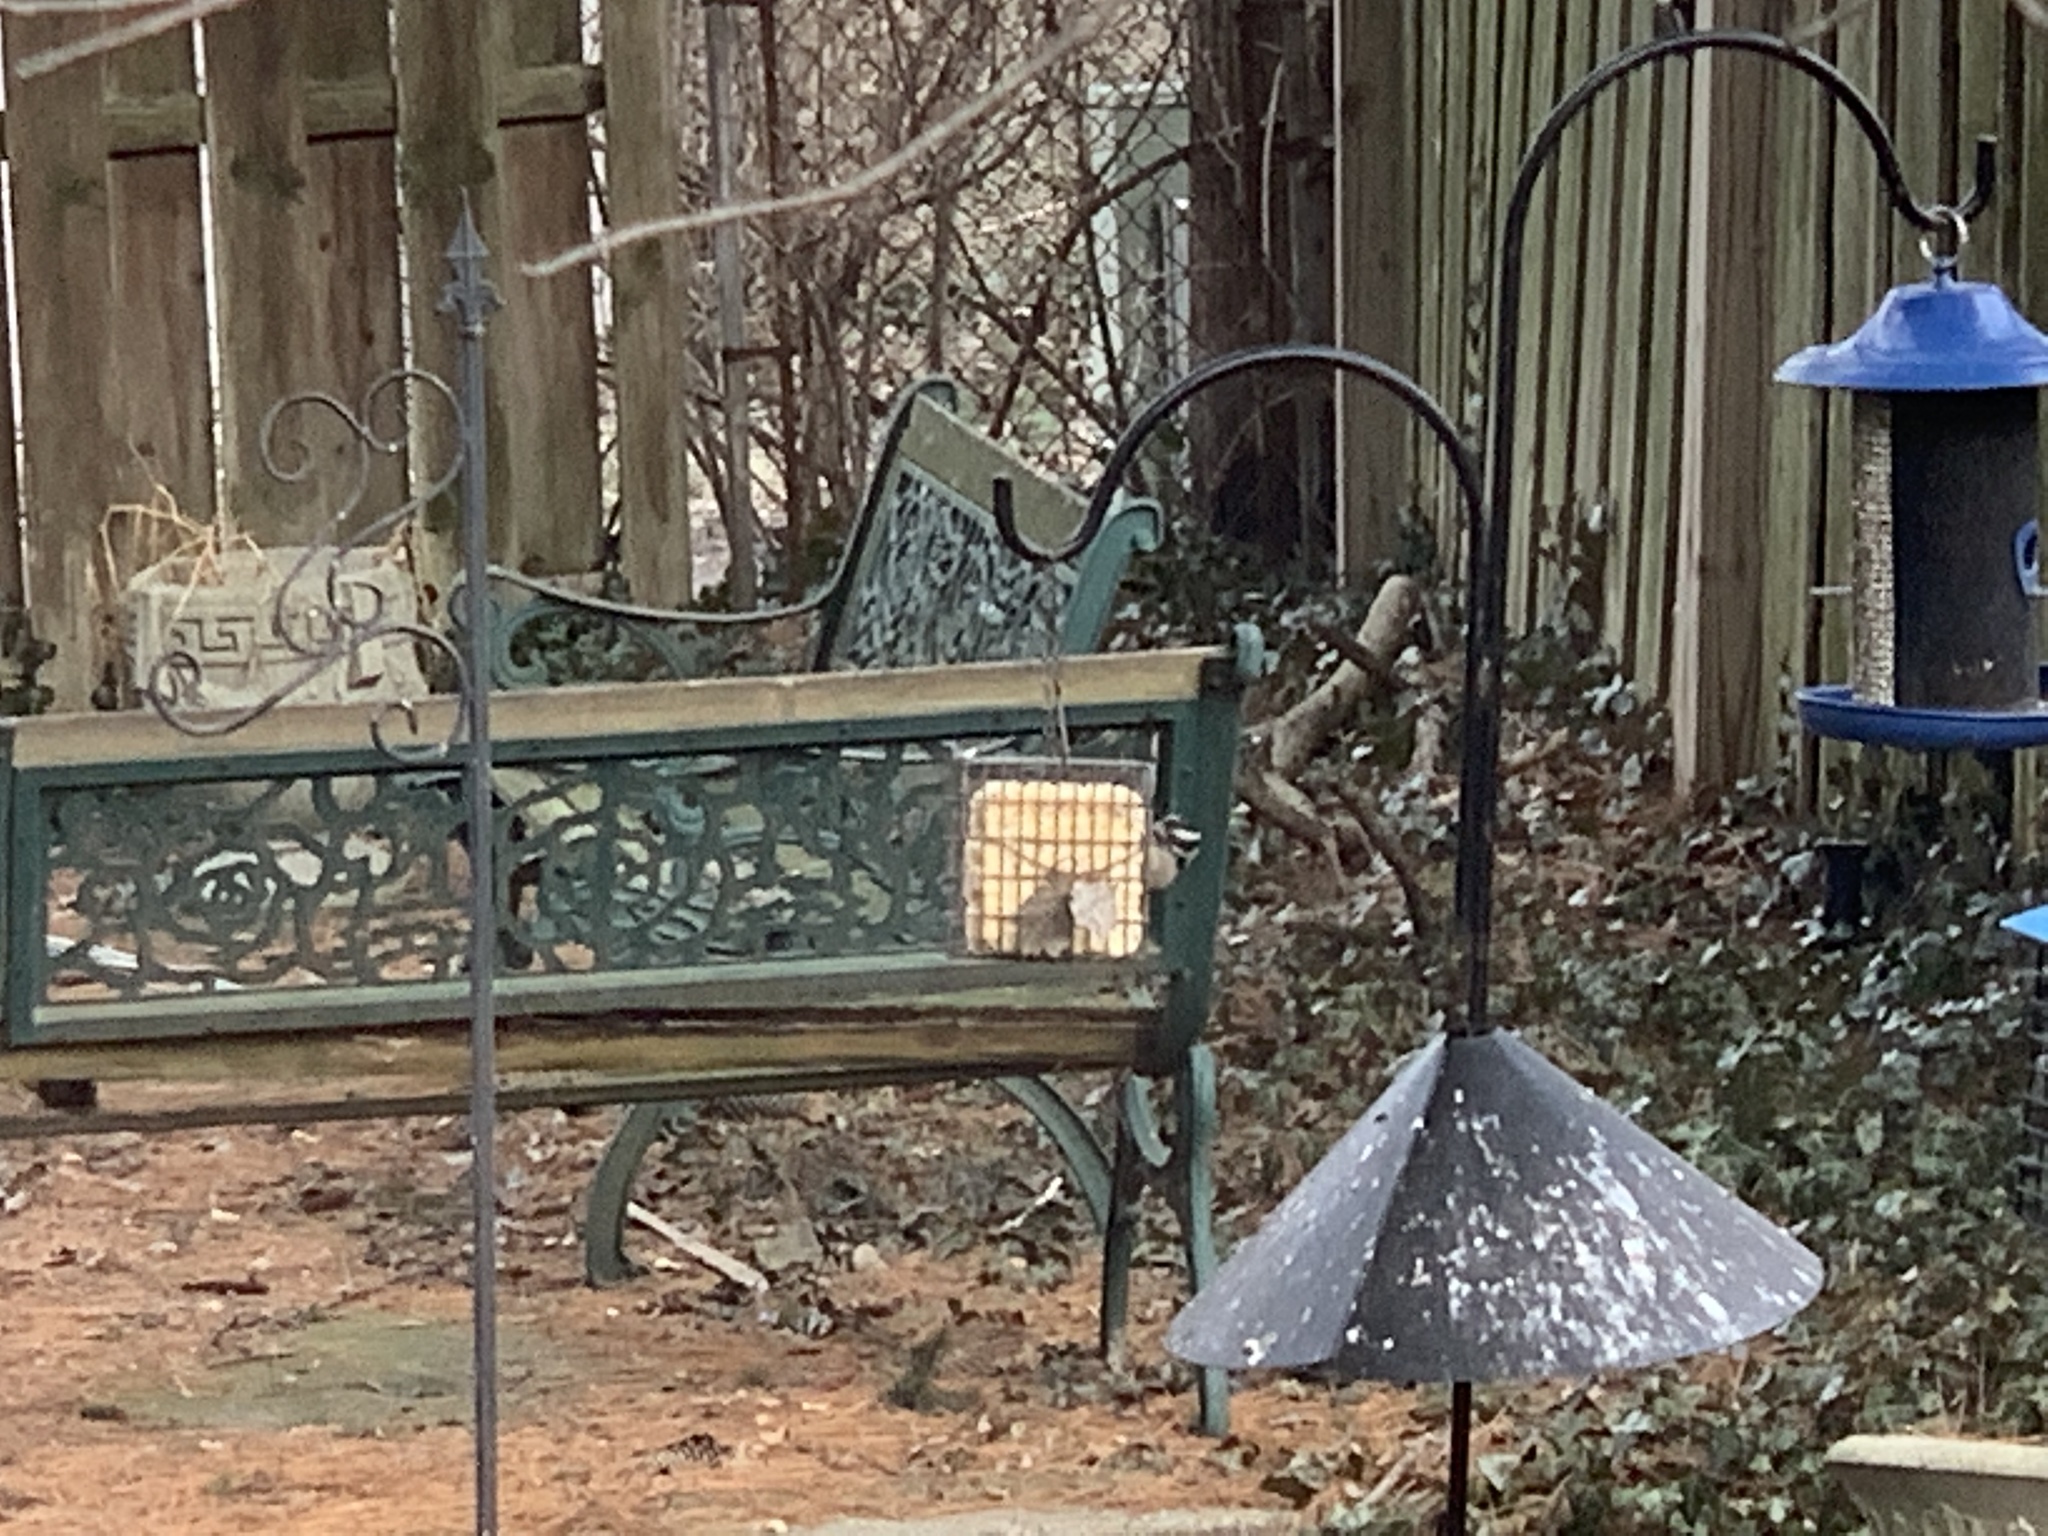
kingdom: Animalia
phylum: Chordata
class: Aves
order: Piciformes
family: Picidae
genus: Dryobates
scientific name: Dryobates pubescens
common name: Downy woodpecker
